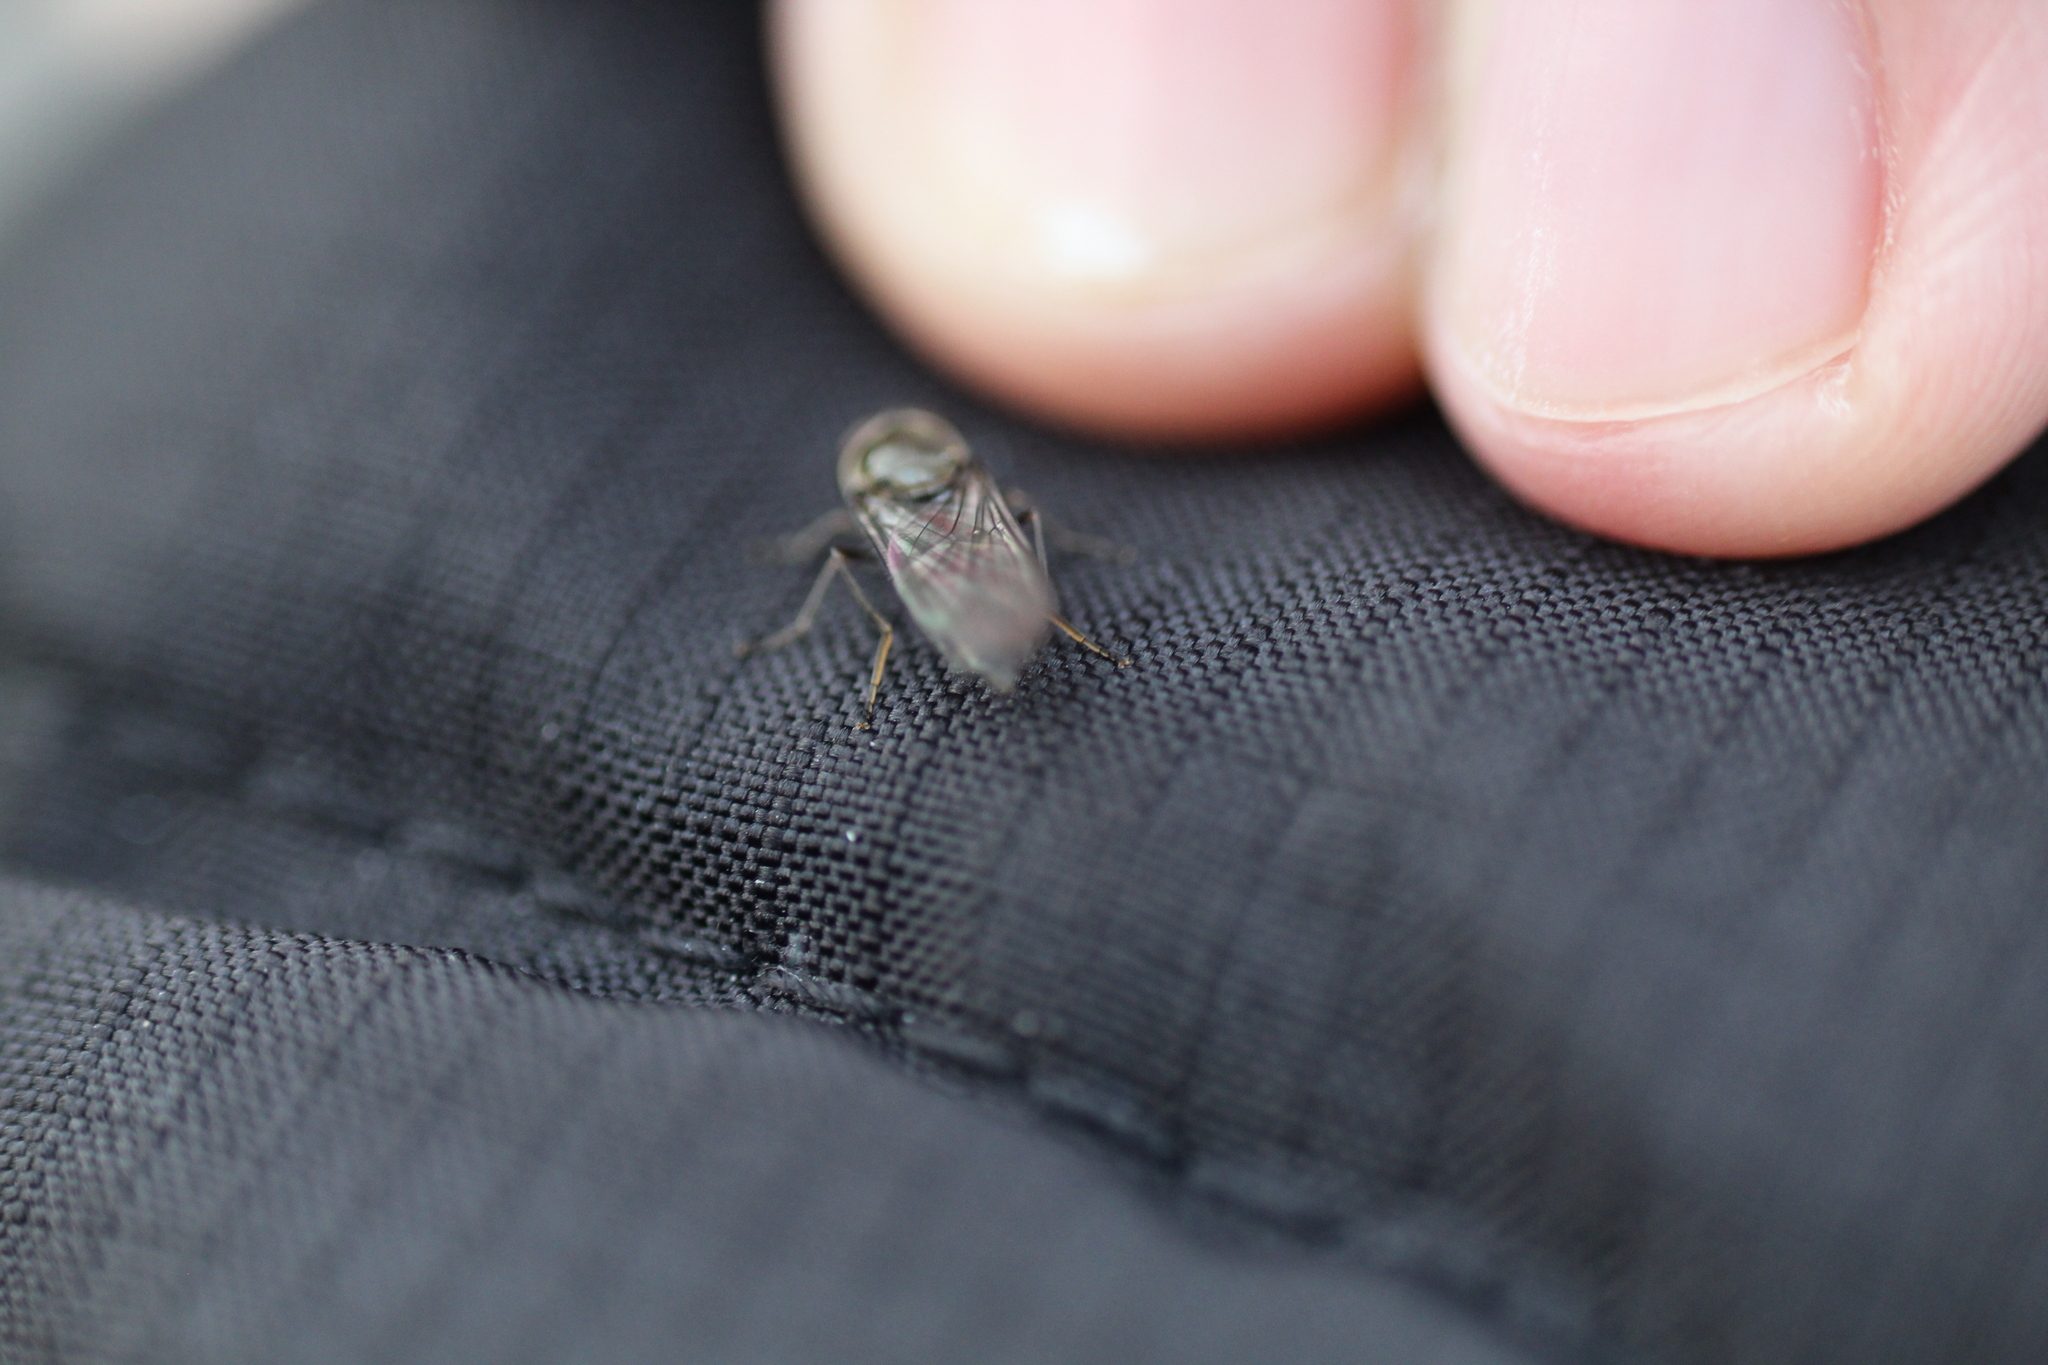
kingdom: Animalia
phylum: Arthropoda
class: Insecta
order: Diptera
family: Syrphidae
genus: Meliscaeva
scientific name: Meliscaeva auricollis
